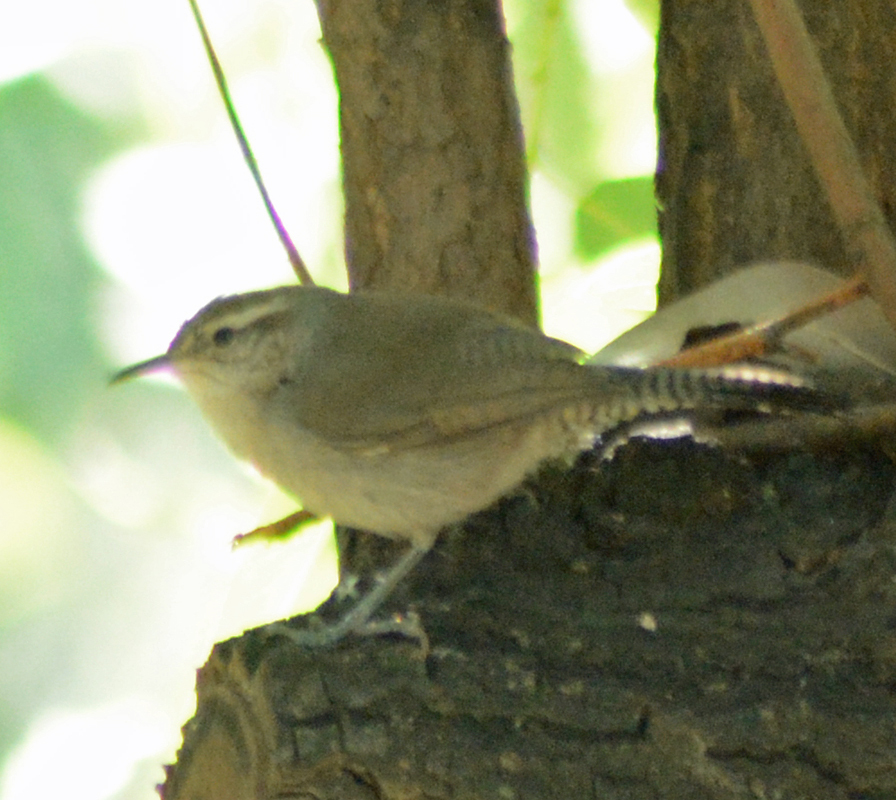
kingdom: Animalia
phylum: Chordata
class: Aves
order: Passeriformes
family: Troglodytidae
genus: Thryomanes
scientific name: Thryomanes bewickii
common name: Bewick's wren
